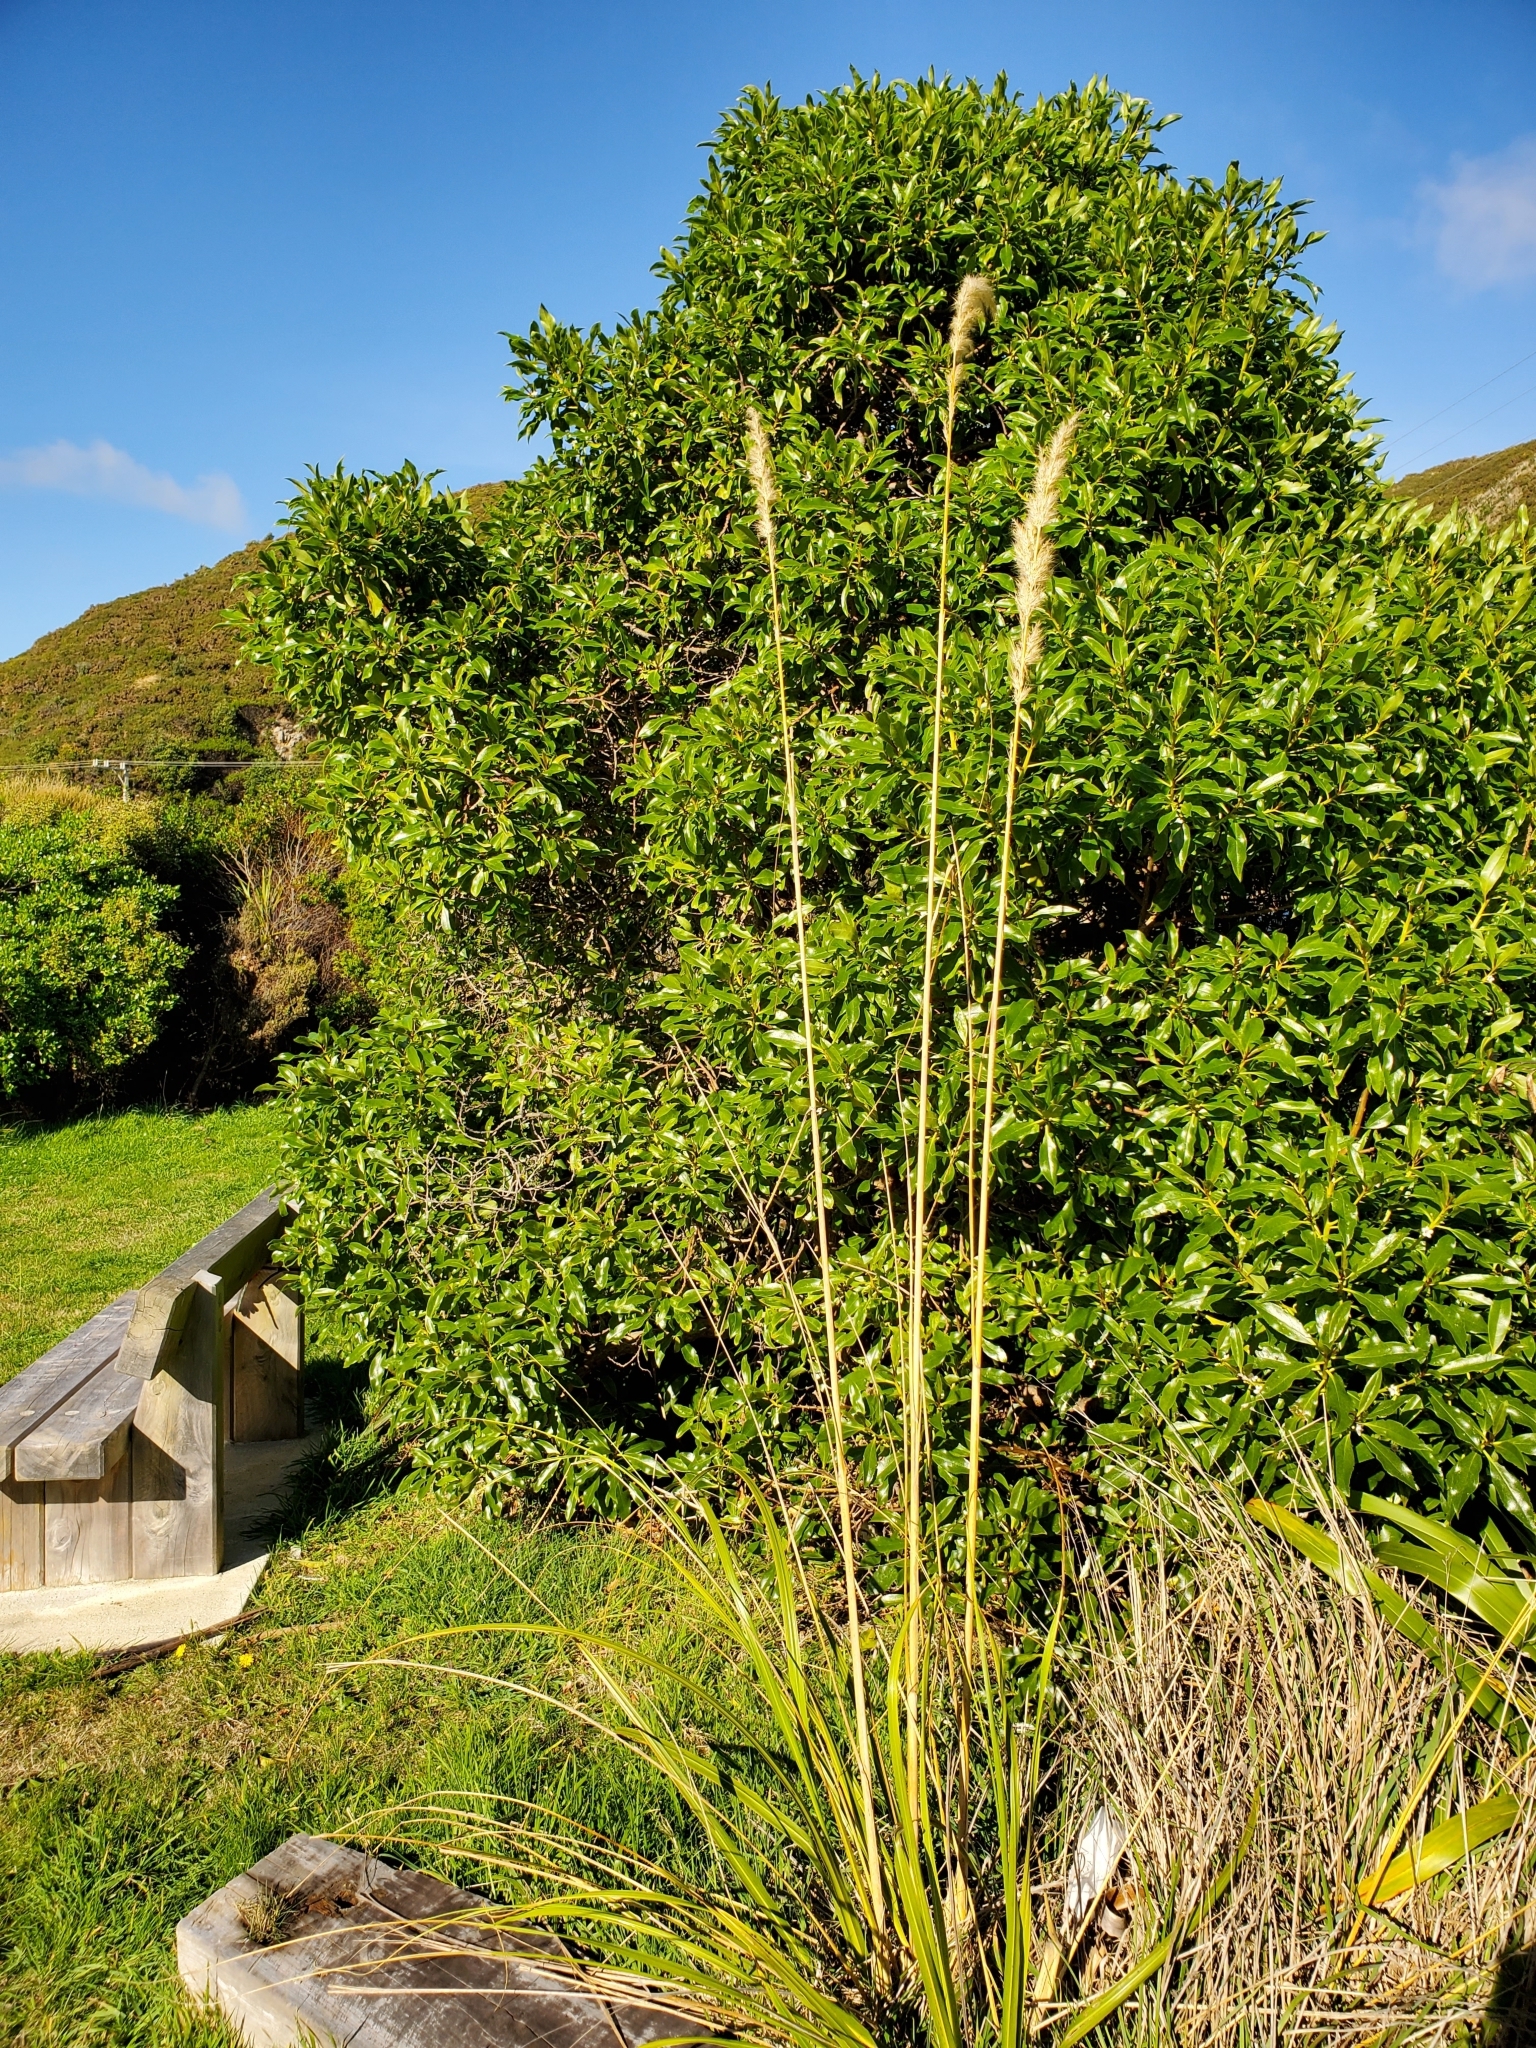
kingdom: Plantae
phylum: Tracheophyta
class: Liliopsida
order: Poales
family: Poaceae
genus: Austroderia
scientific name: Austroderia toetoe
